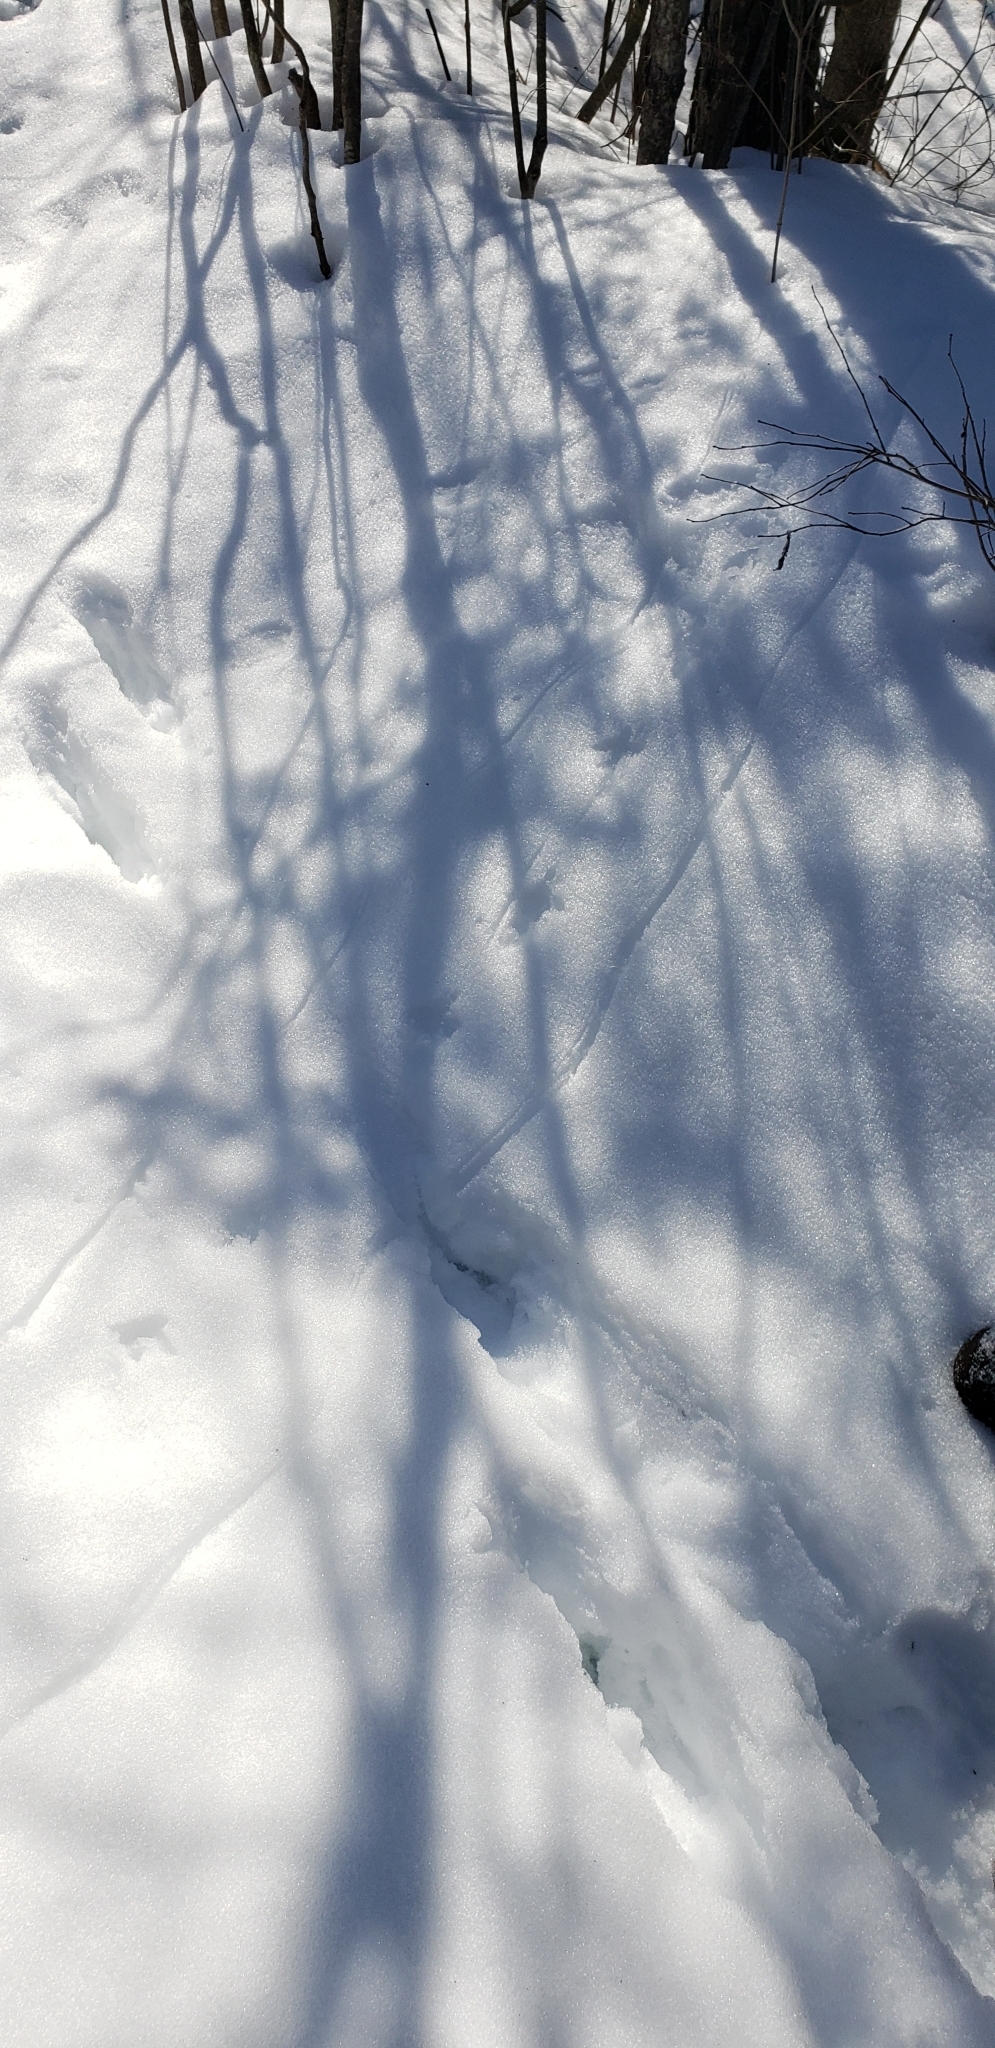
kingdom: Animalia
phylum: Chordata
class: Aves
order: Galliformes
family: Phasianidae
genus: Bonasa
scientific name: Bonasa umbellus
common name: Ruffed grouse
